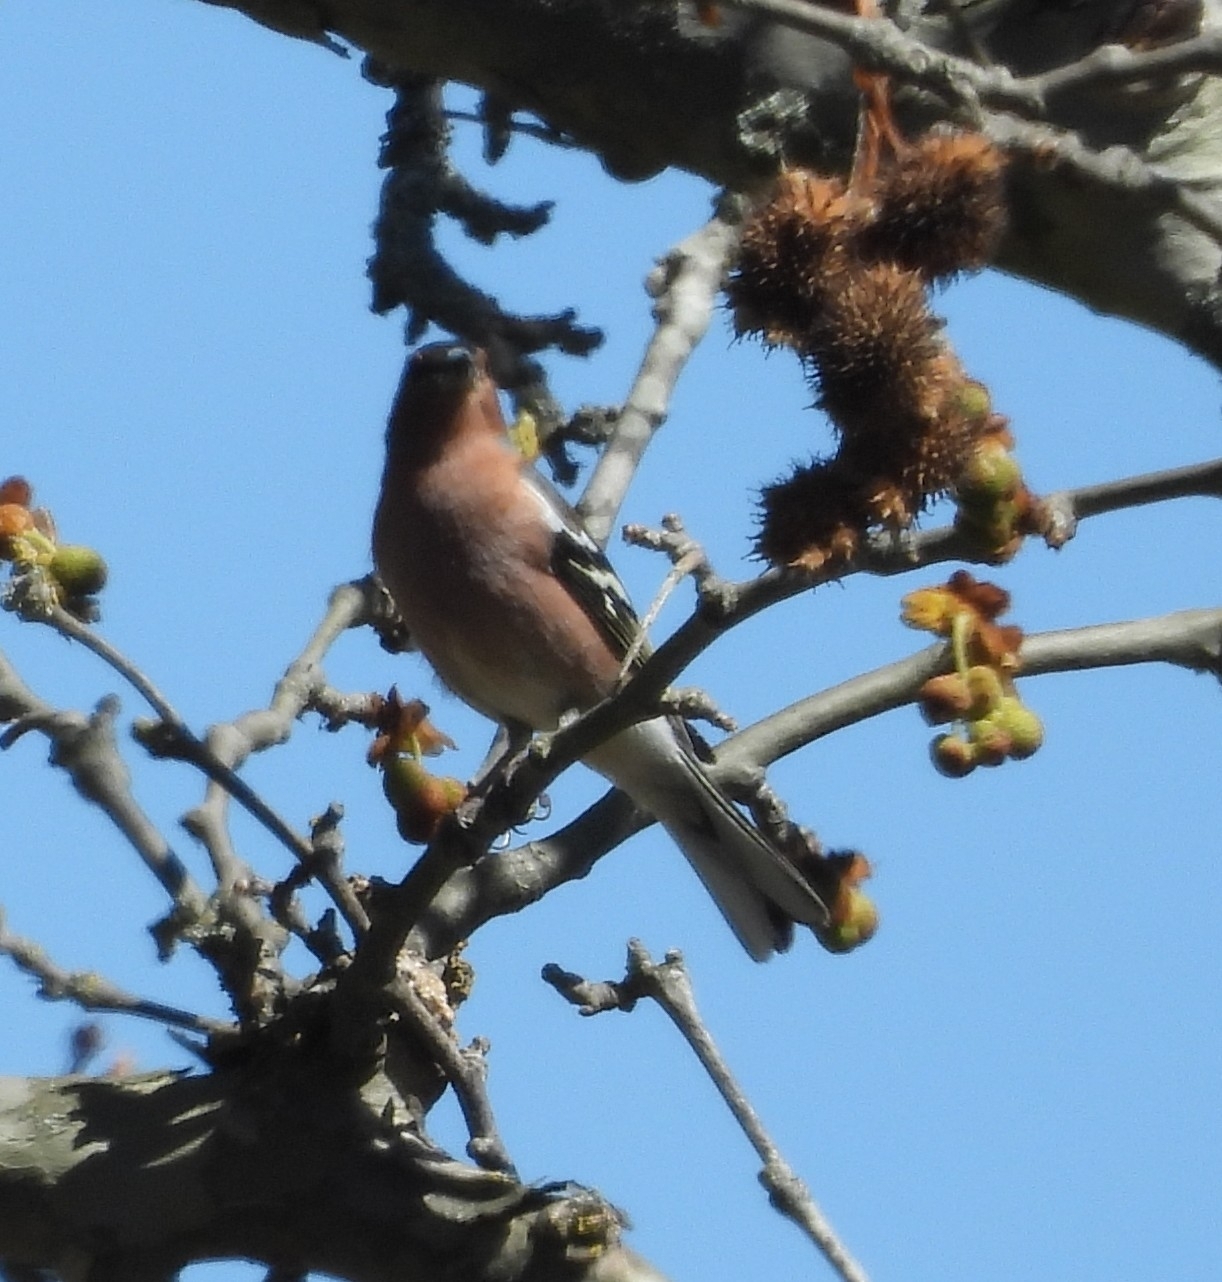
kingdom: Animalia
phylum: Chordata
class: Aves
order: Passeriformes
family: Fringillidae
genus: Fringilla
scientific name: Fringilla coelebs
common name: Common chaffinch
